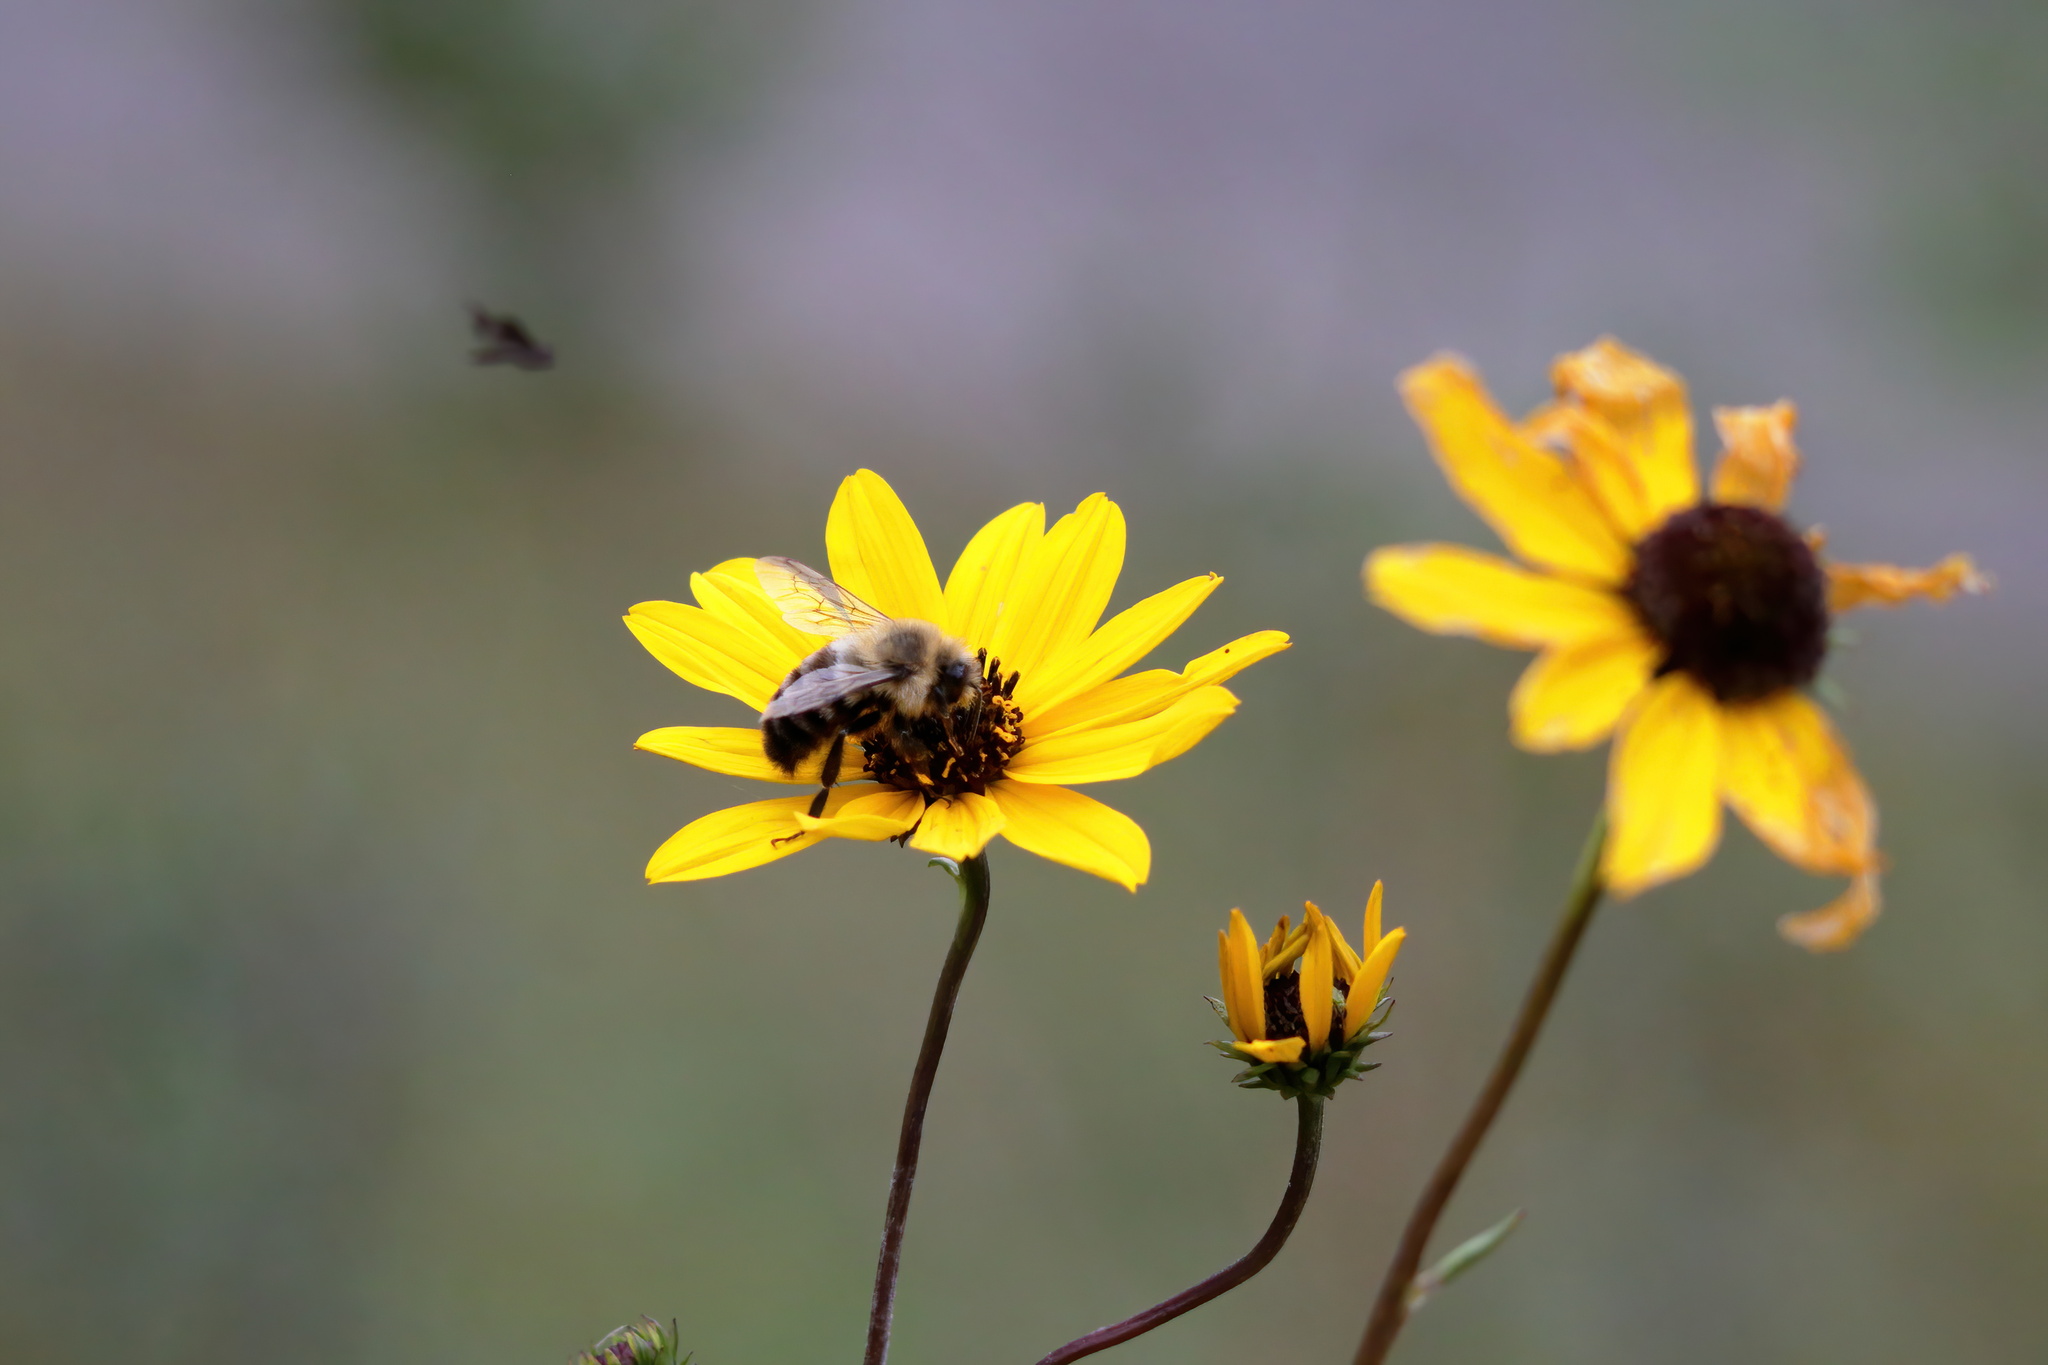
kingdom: Animalia
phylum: Arthropoda
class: Insecta
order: Hymenoptera
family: Apidae
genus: Bombus
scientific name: Bombus impatiens
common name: Common eastern bumble bee
